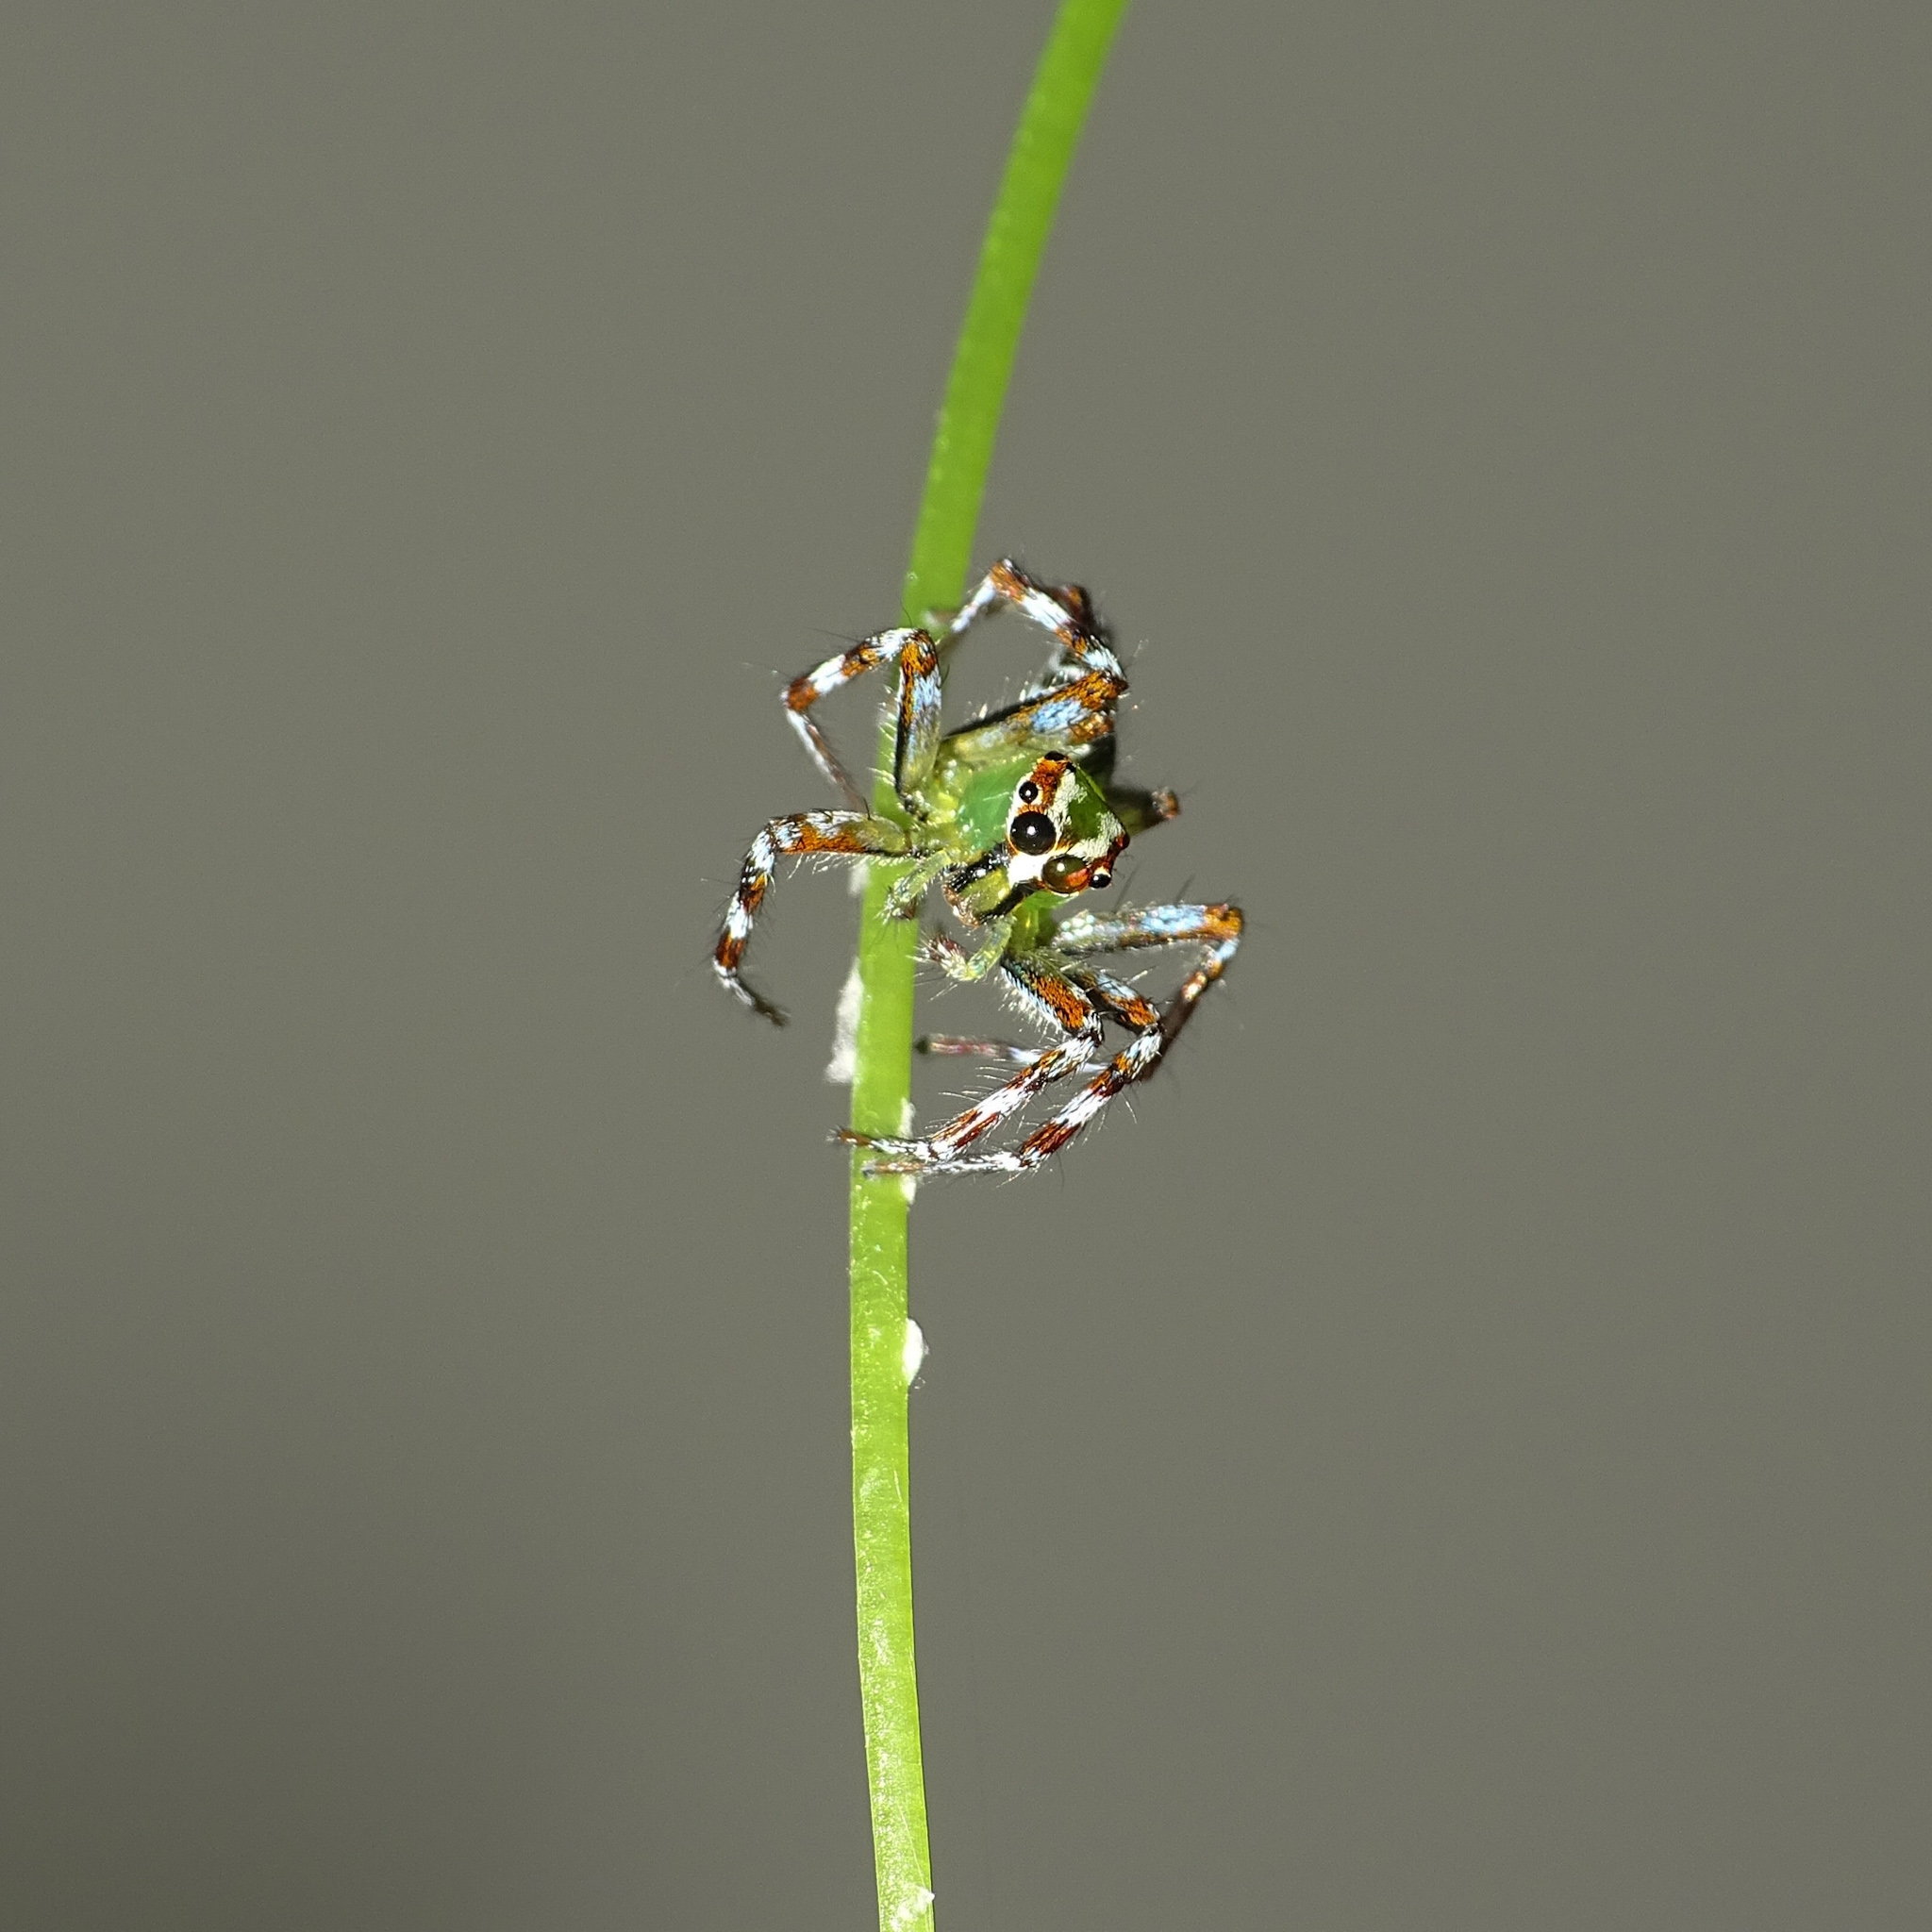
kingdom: Animalia
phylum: Arthropoda
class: Arachnida
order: Araneae
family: Salticidae
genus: Epeus
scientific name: Epeus triangulopalpis
